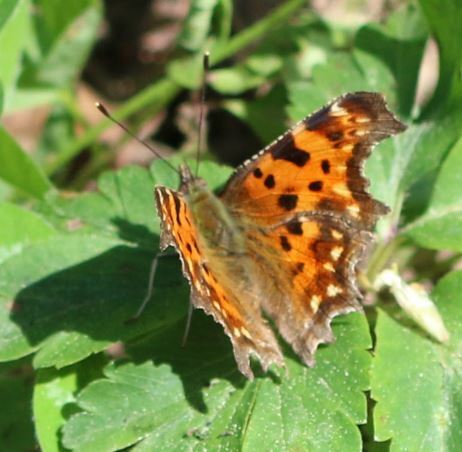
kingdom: Animalia
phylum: Arthropoda
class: Insecta
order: Lepidoptera
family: Nymphalidae
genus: Polygonia
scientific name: Polygonia c-album
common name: Comma
